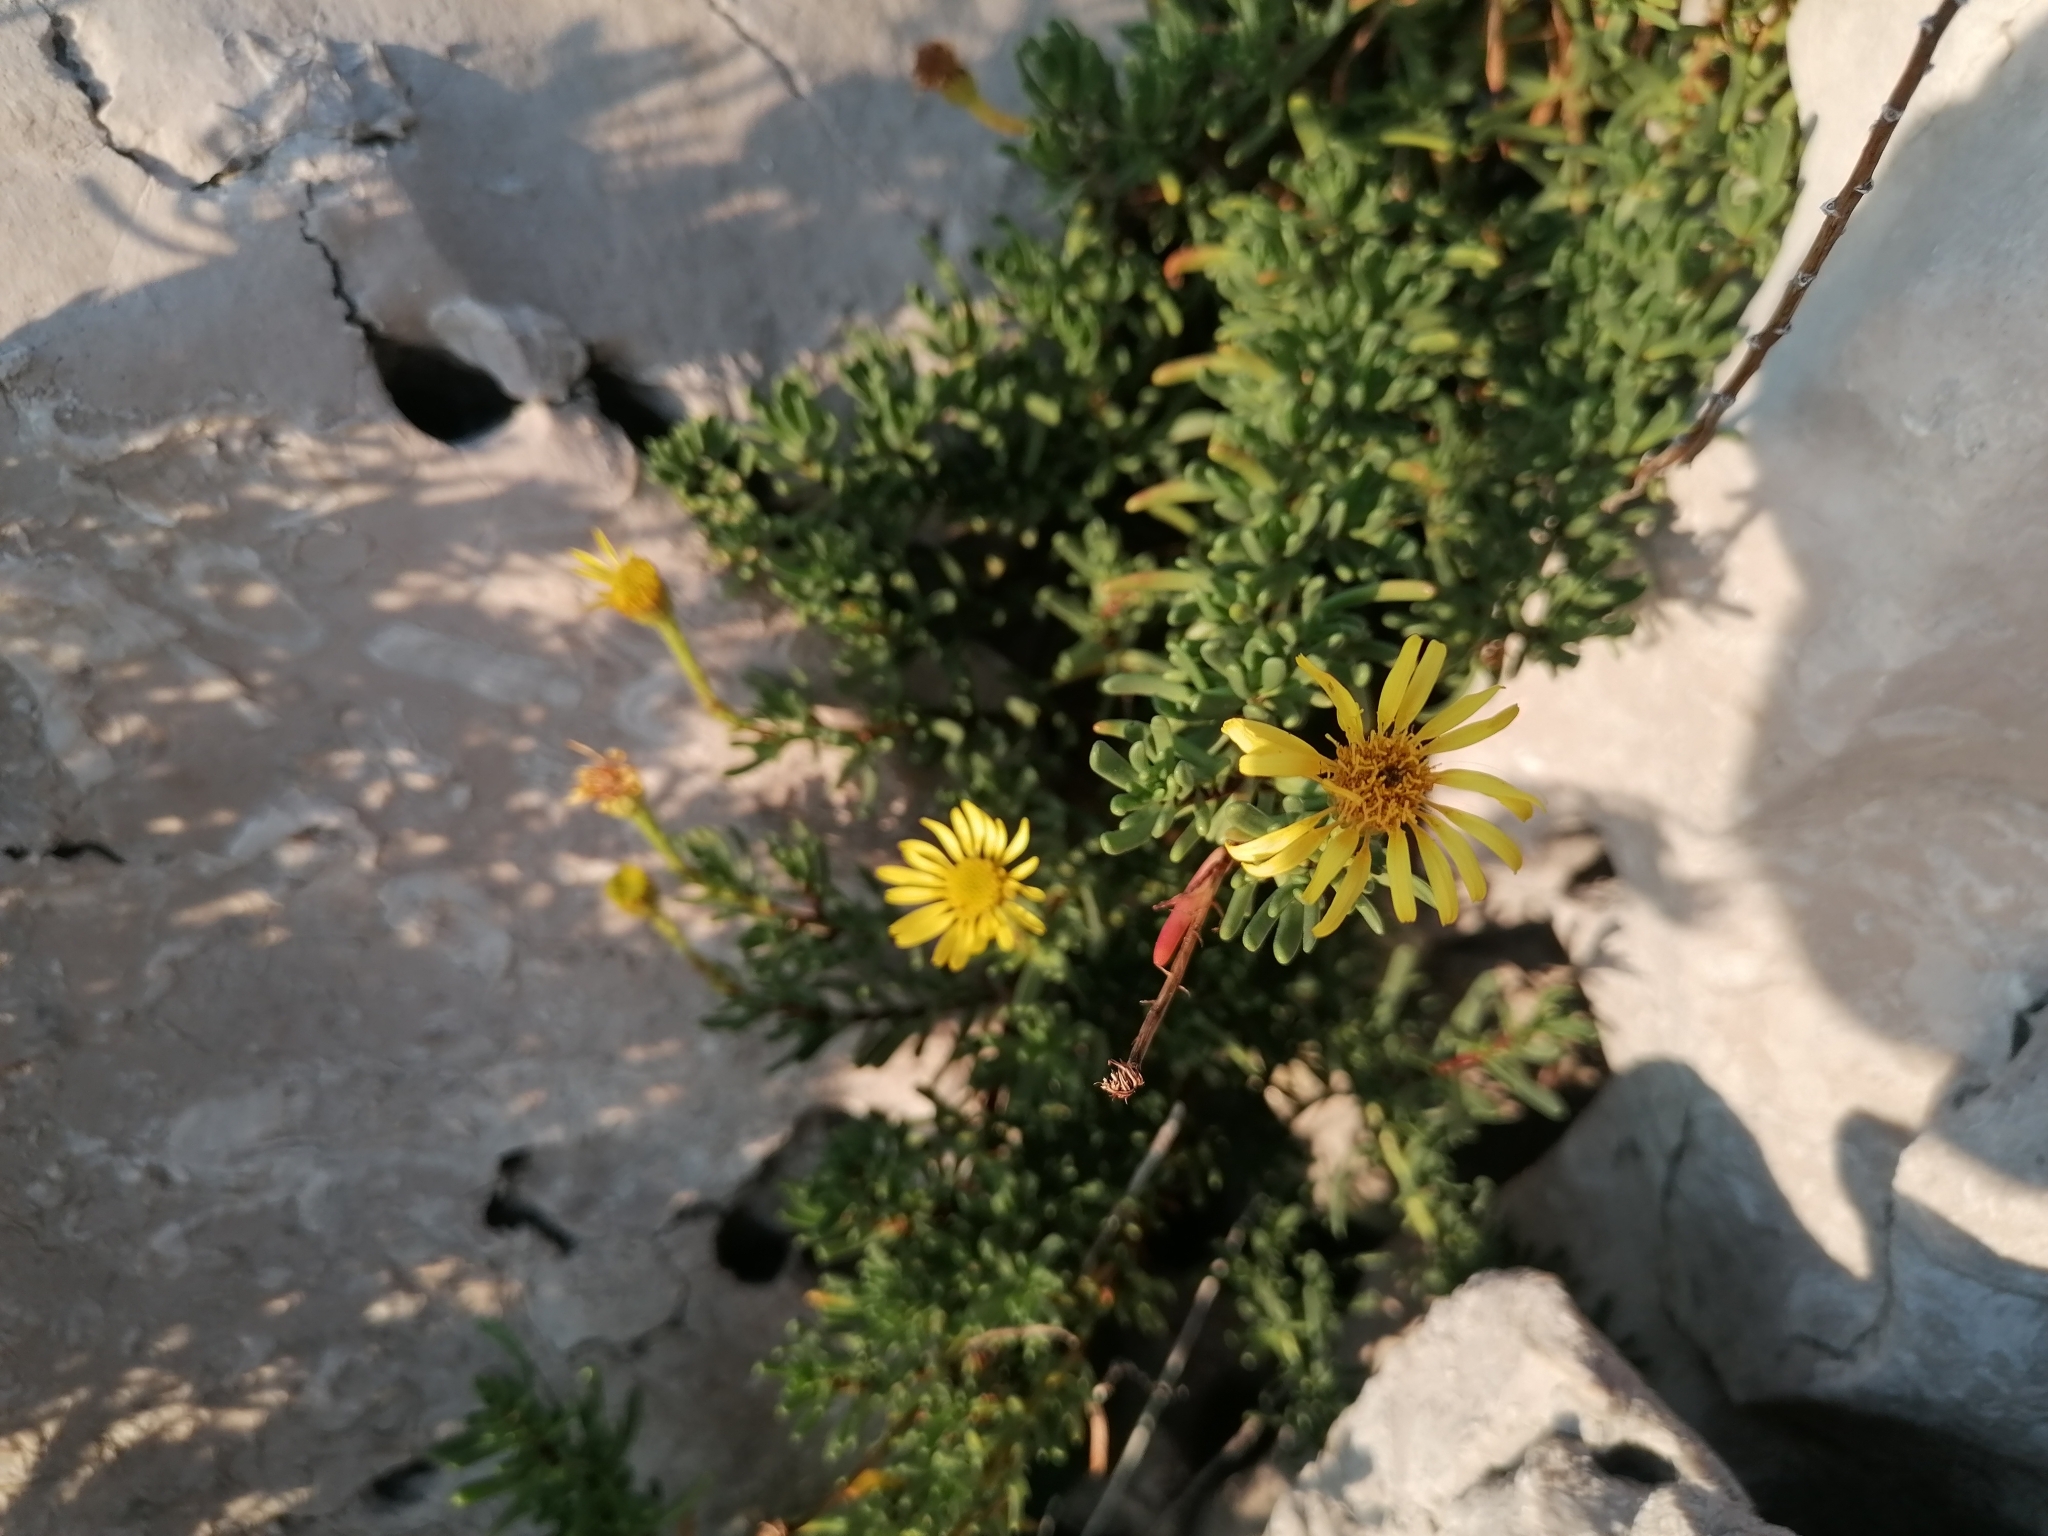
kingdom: Plantae
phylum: Tracheophyta
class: Magnoliopsida
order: Asterales
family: Asteraceae
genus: Limbarda
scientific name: Limbarda crithmoides
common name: Golden samphire
